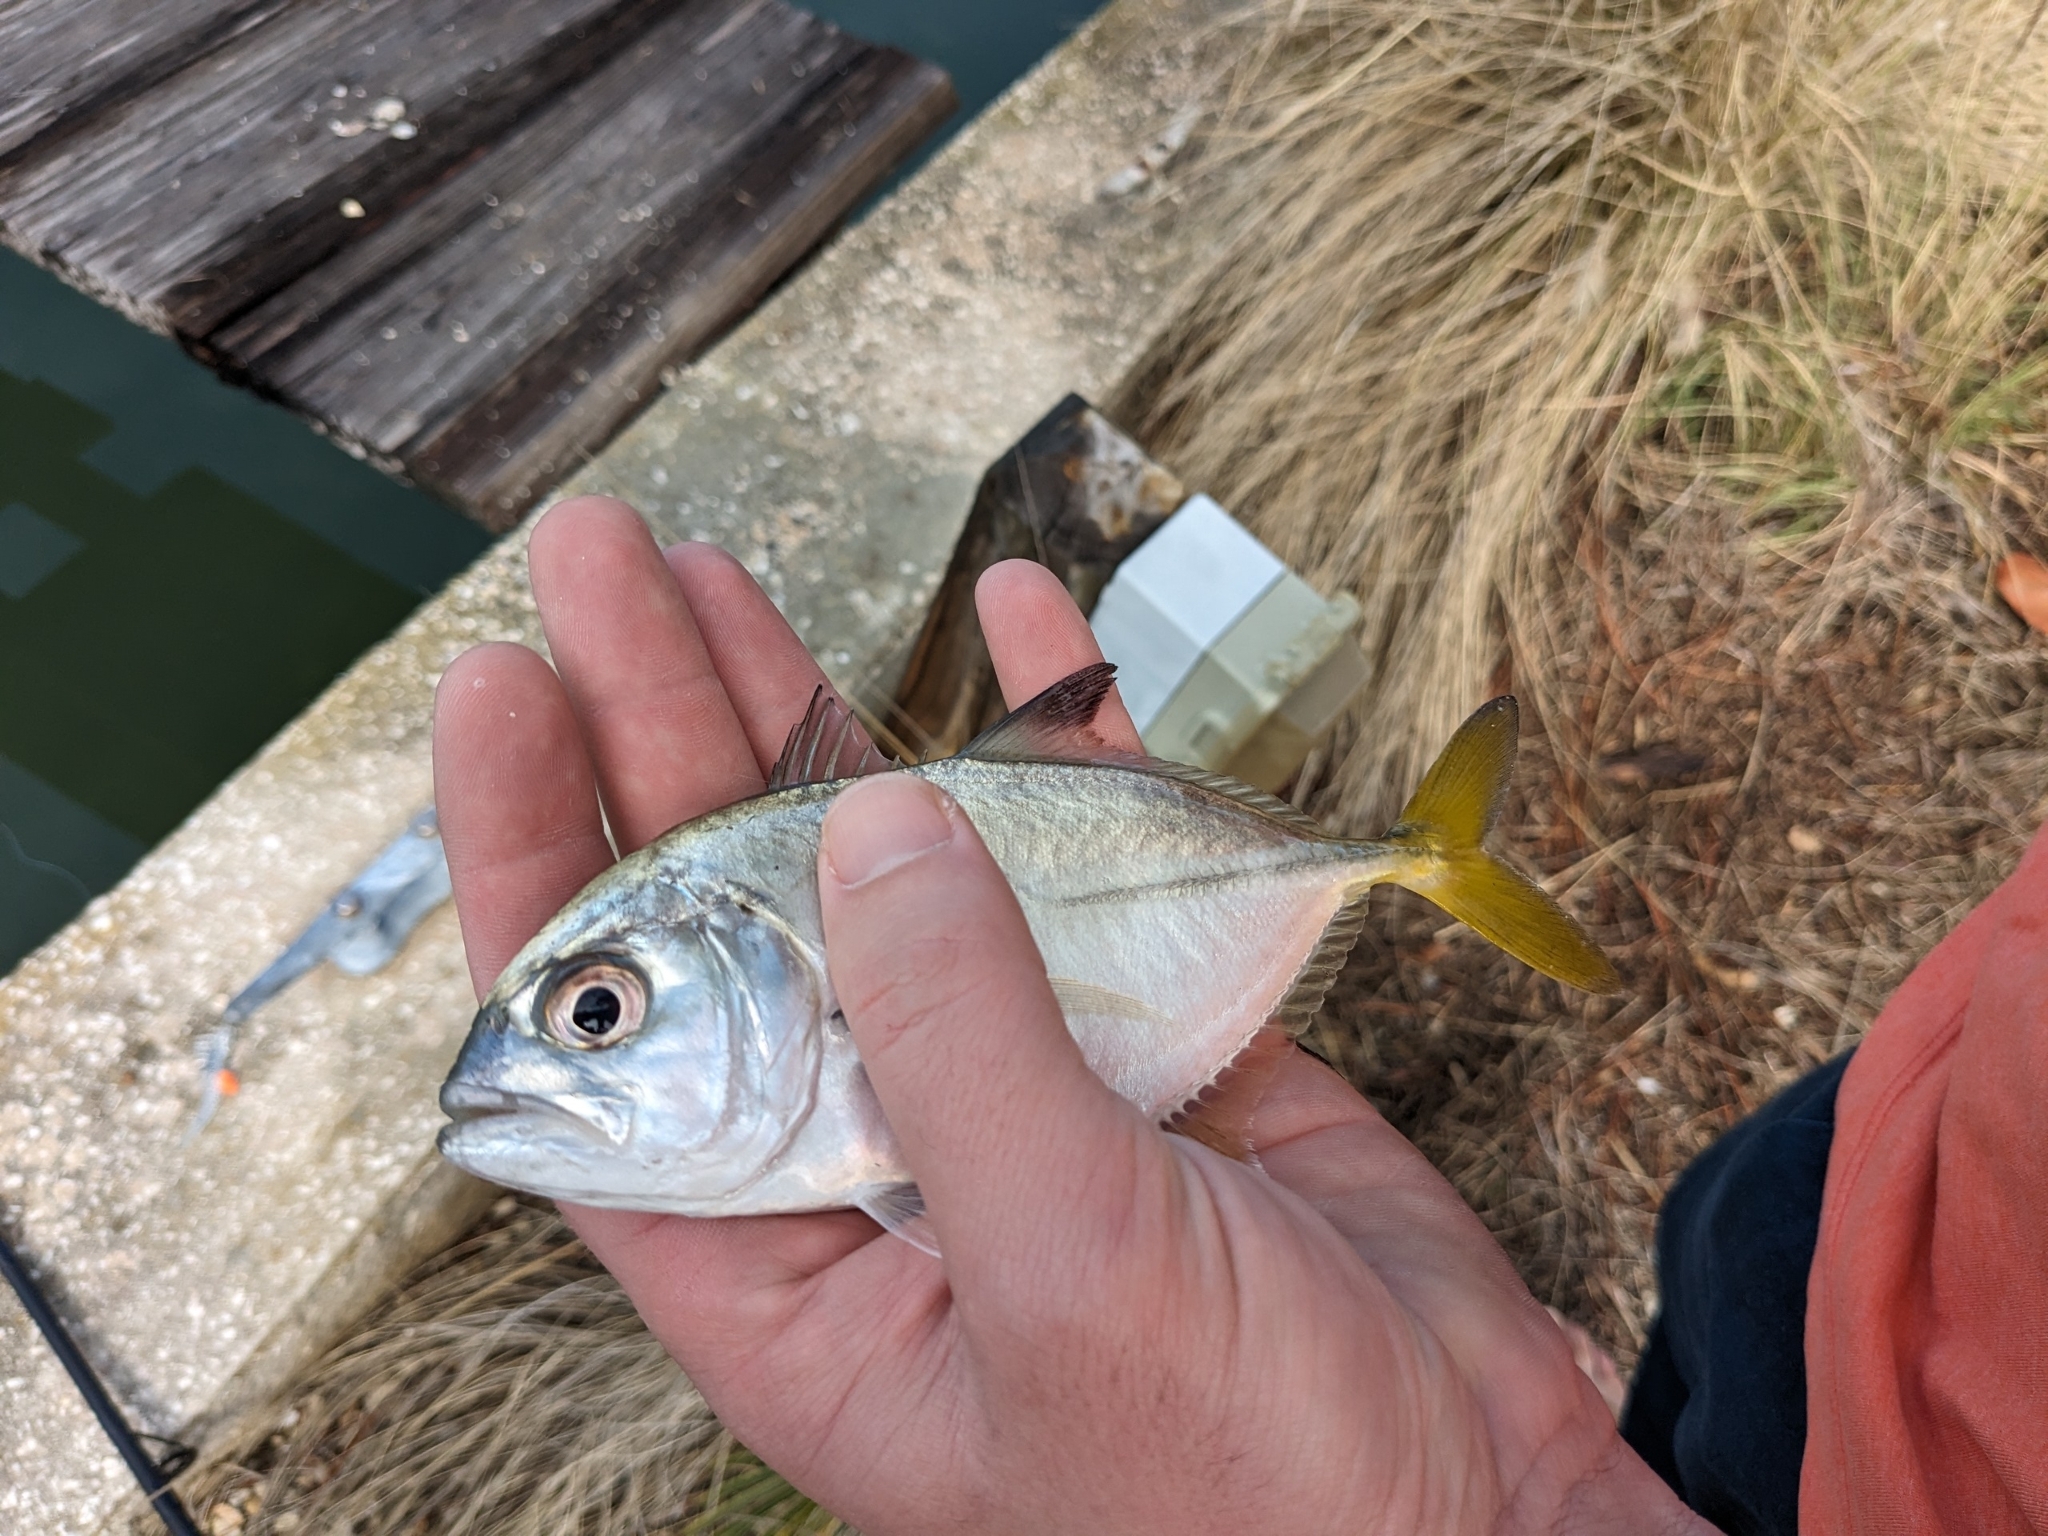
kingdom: Animalia
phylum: Chordata
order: Perciformes
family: Carangidae
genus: Caranx
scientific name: Caranx latus
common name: Horse eye jack
